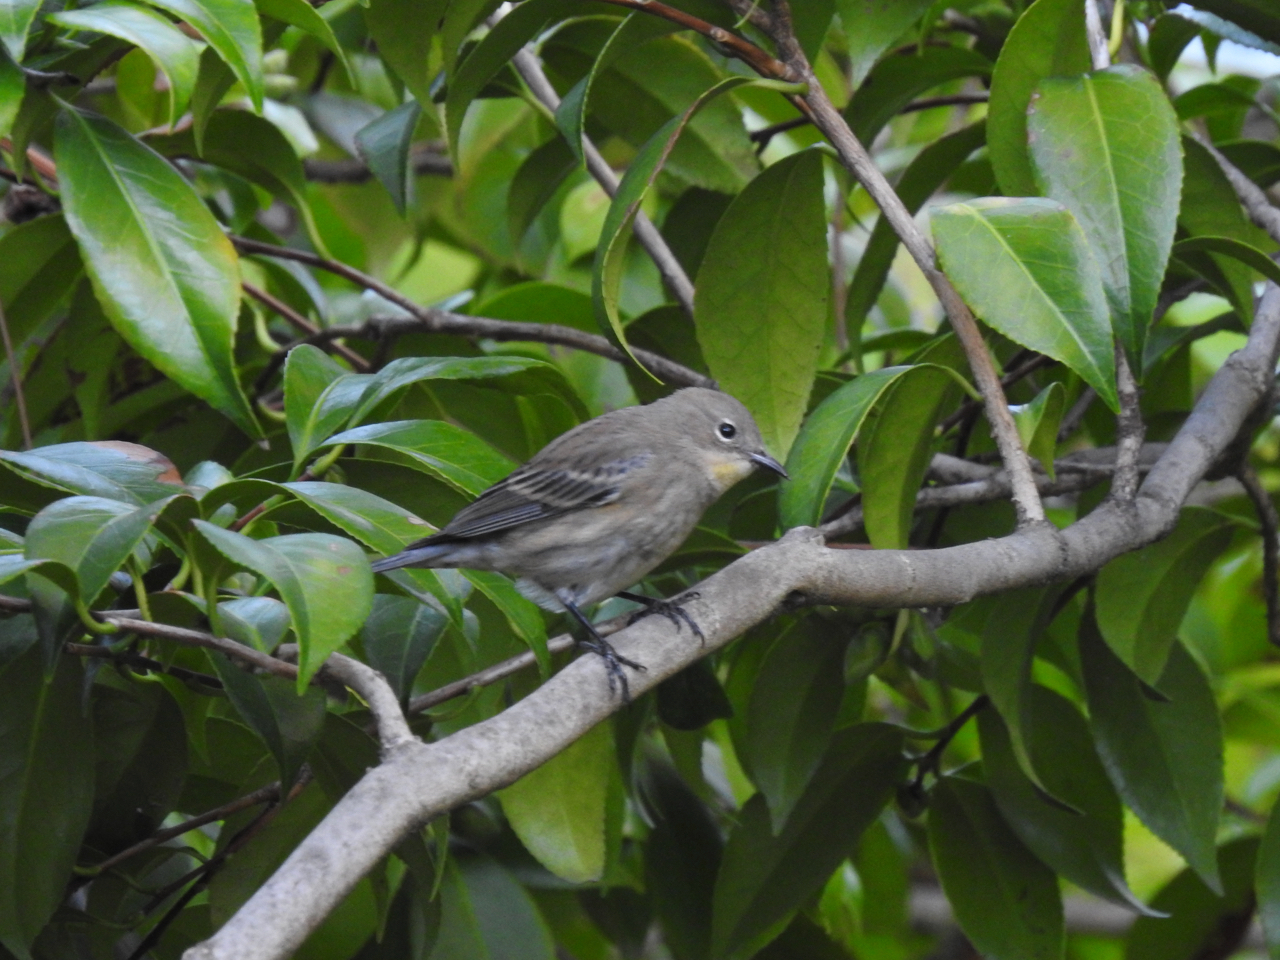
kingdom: Animalia
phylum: Chordata
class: Aves
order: Passeriformes
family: Parulidae
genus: Setophaga
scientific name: Setophaga coronata
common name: Myrtle warbler
